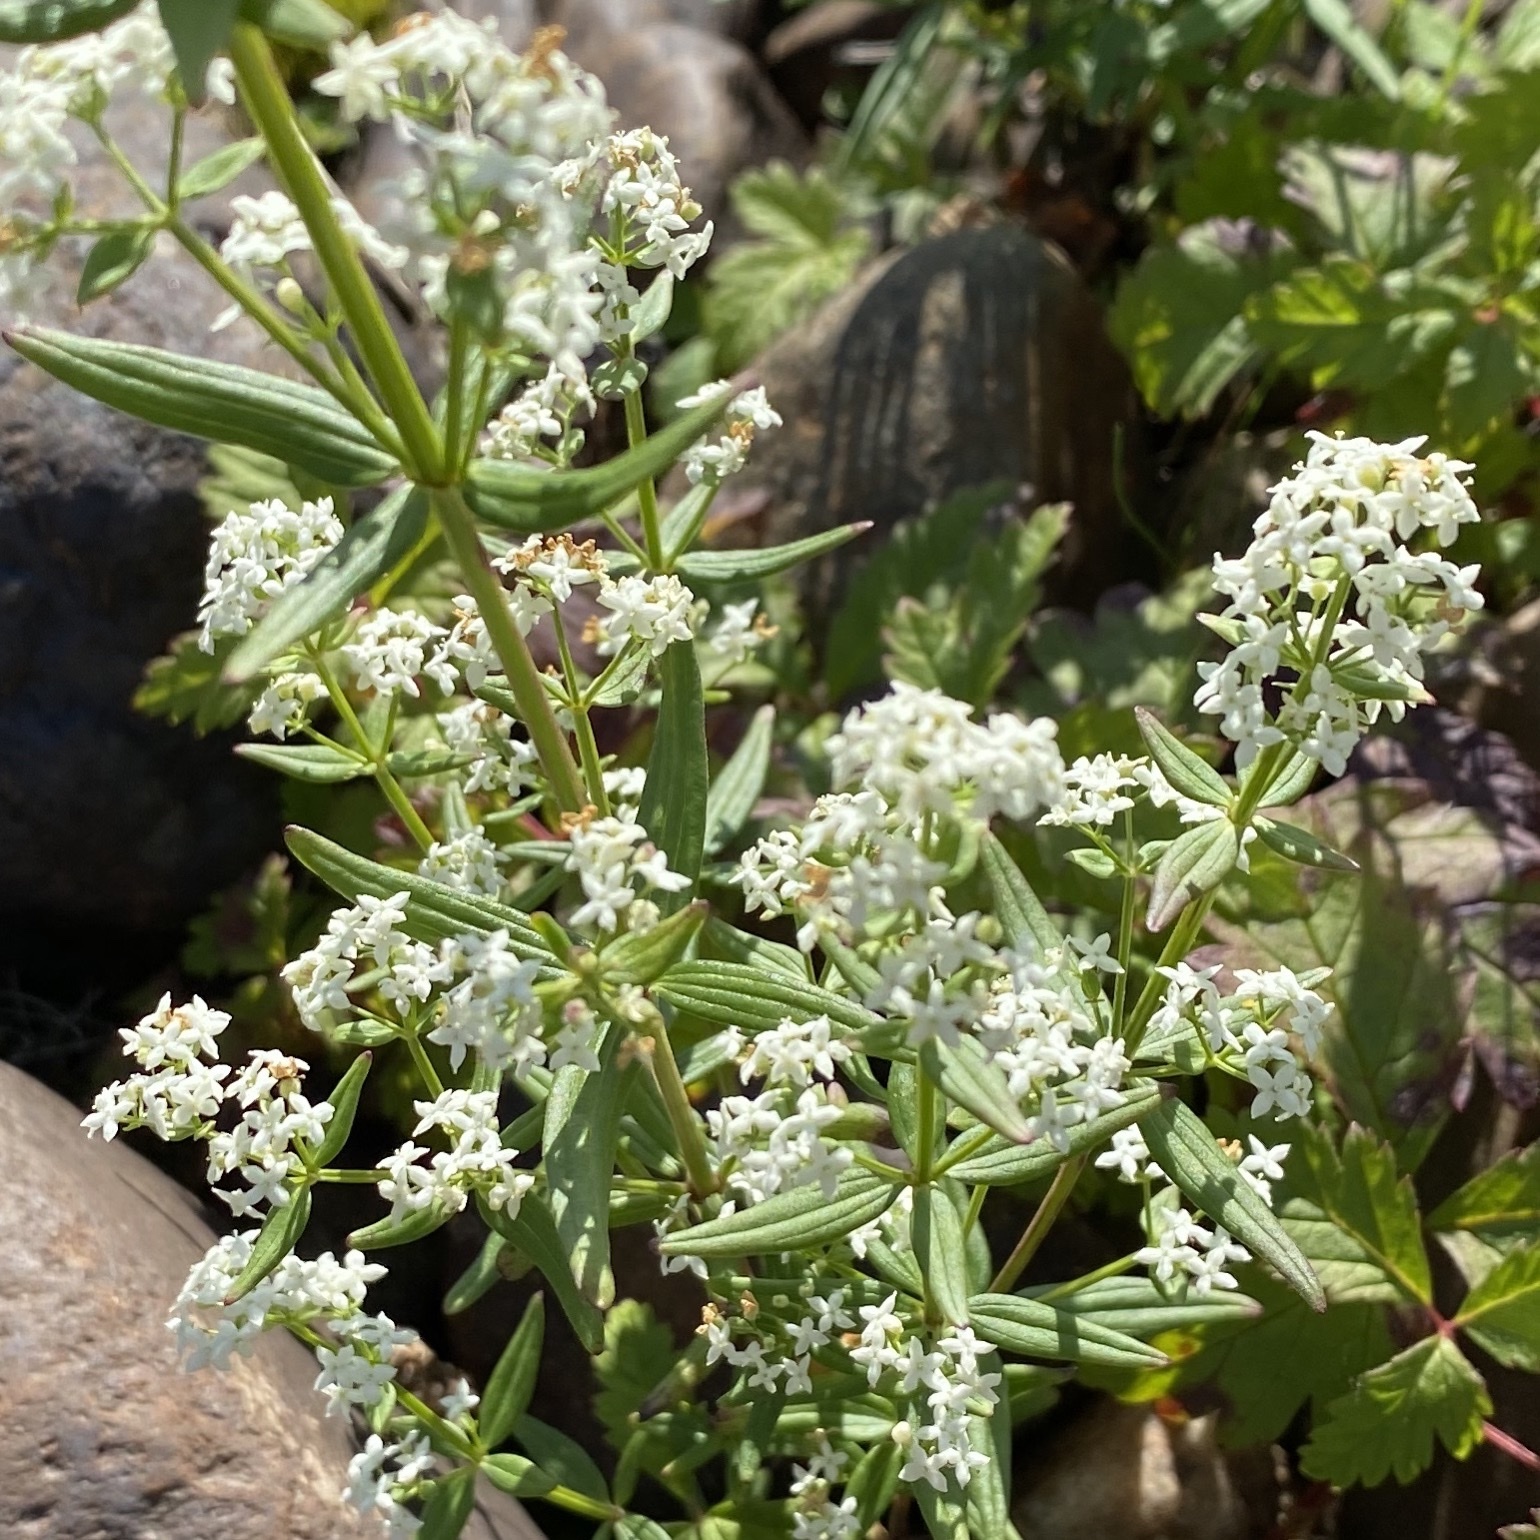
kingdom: Plantae
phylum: Tracheophyta
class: Magnoliopsida
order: Gentianales
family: Rubiaceae
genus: Galium
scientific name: Galium boreale
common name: Northern bedstraw
